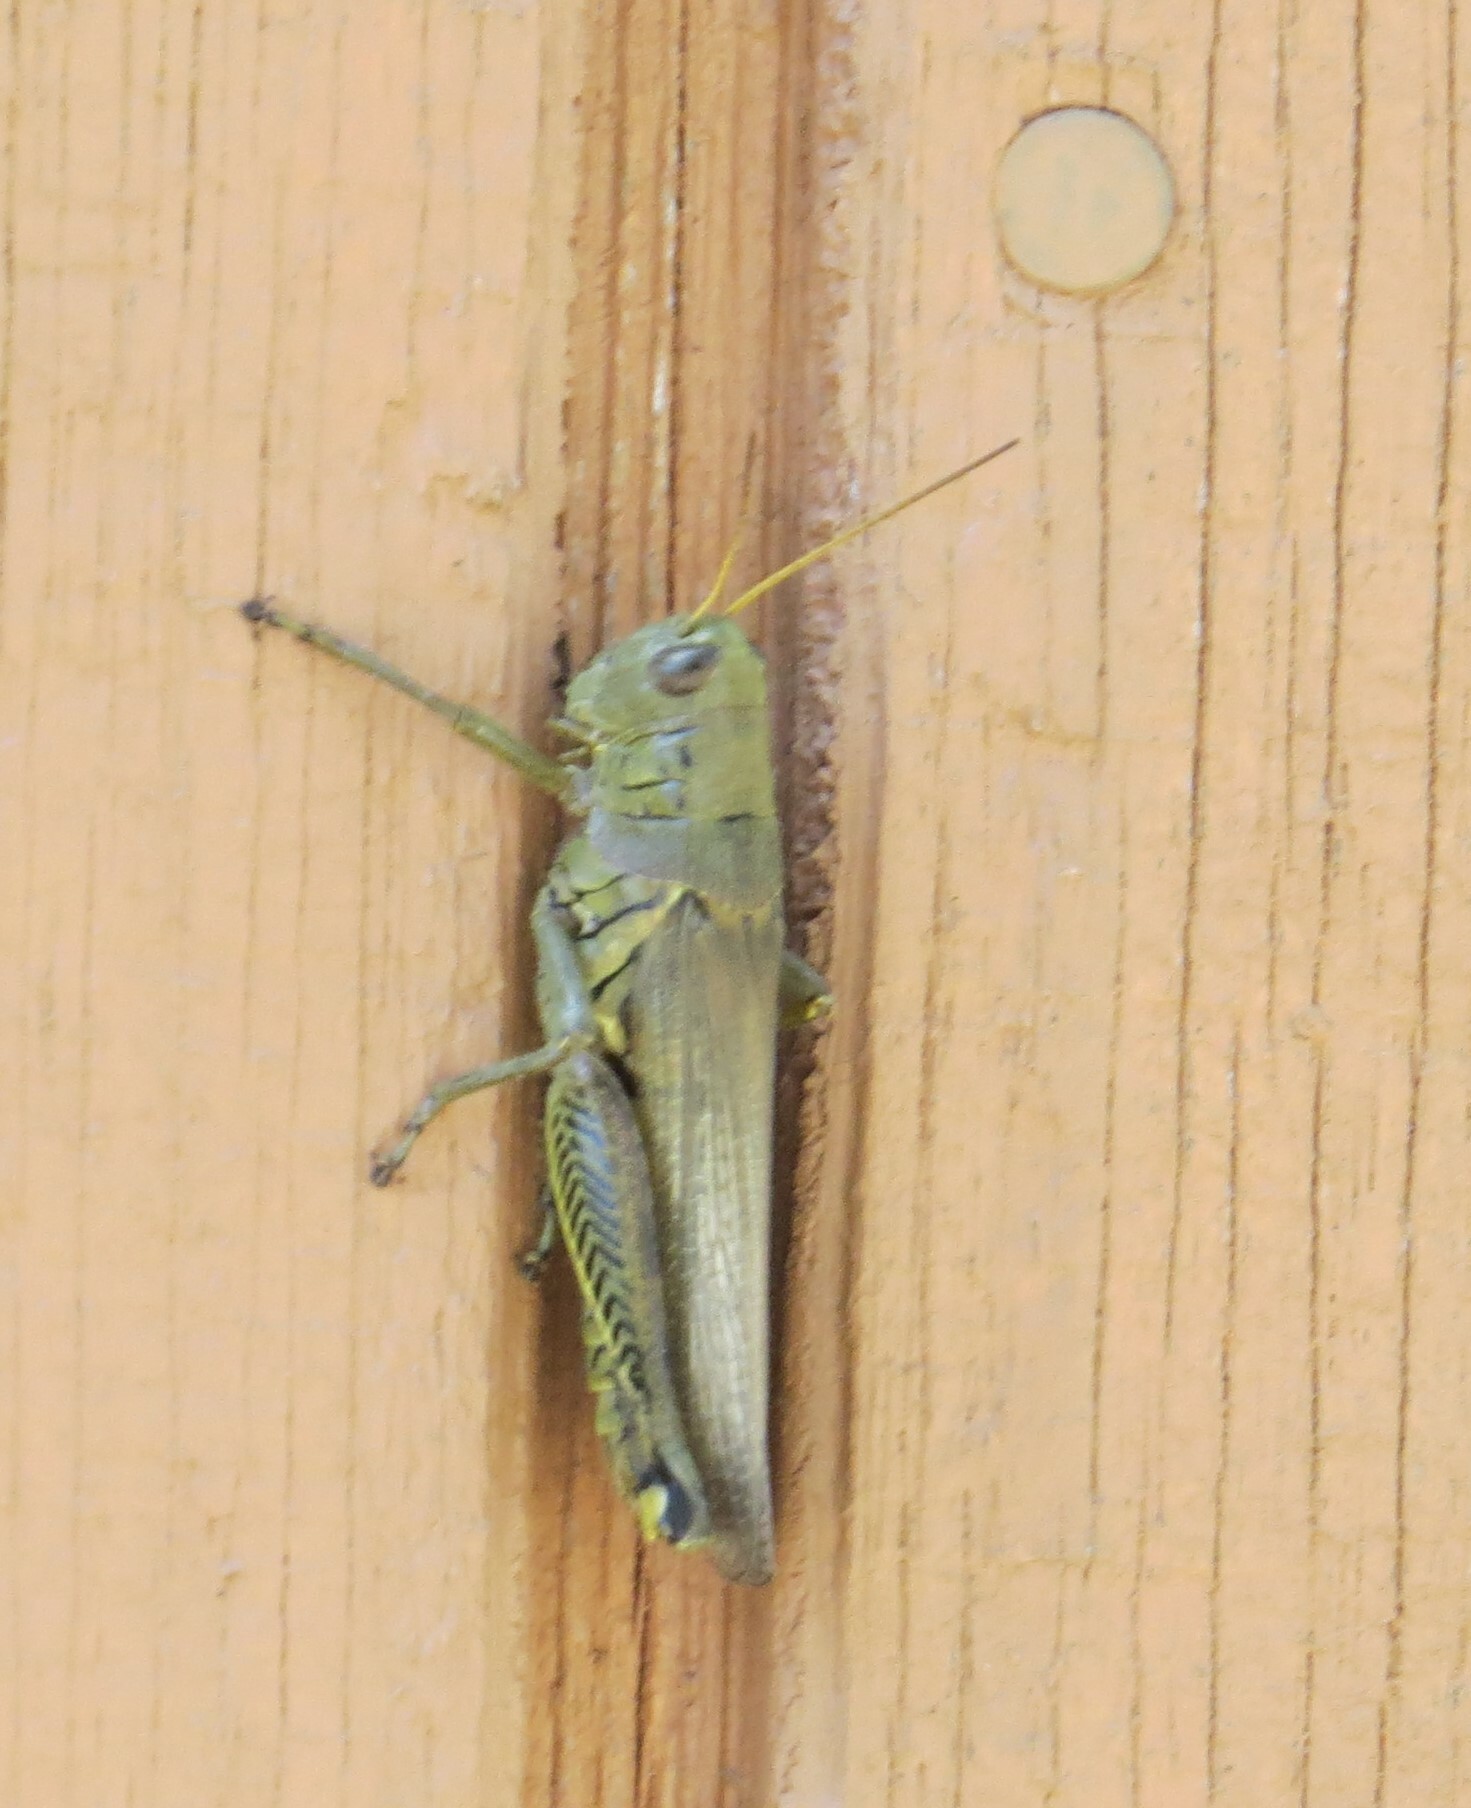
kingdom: Animalia
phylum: Arthropoda
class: Insecta
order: Orthoptera
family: Acrididae
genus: Melanoplus
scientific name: Melanoplus differentialis
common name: Differential grasshopper
